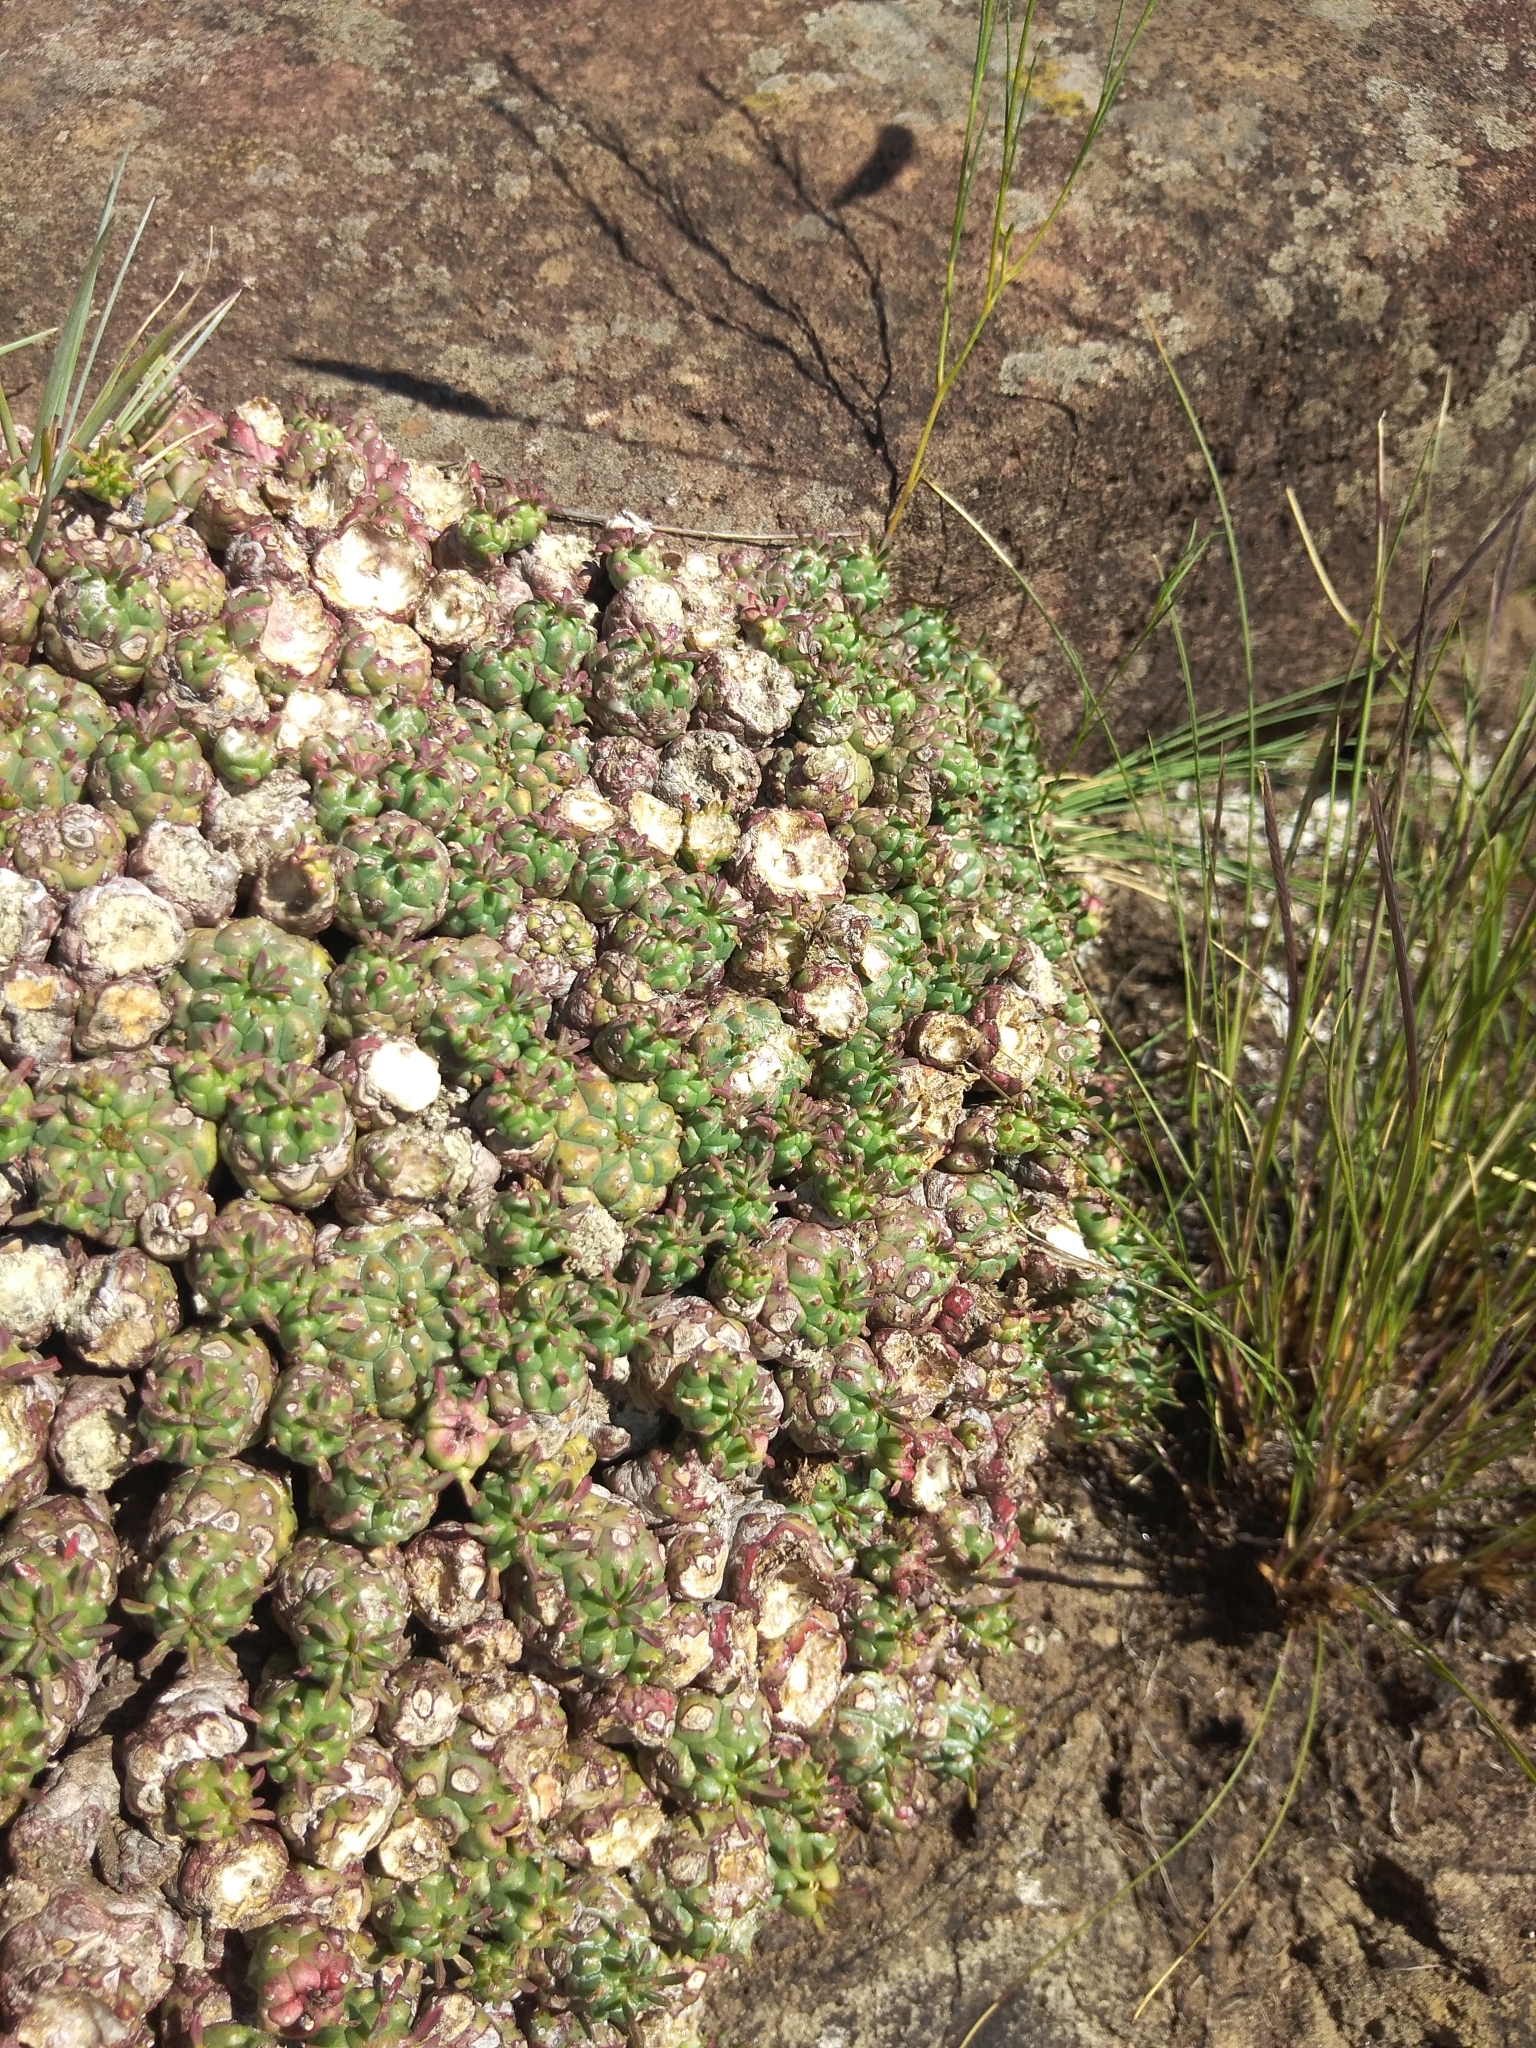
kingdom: Plantae
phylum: Tracheophyta
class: Magnoliopsida
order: Malpighiales
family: Euphorbiaceae
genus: Euphorbia
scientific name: Euphorbia clavarioides
